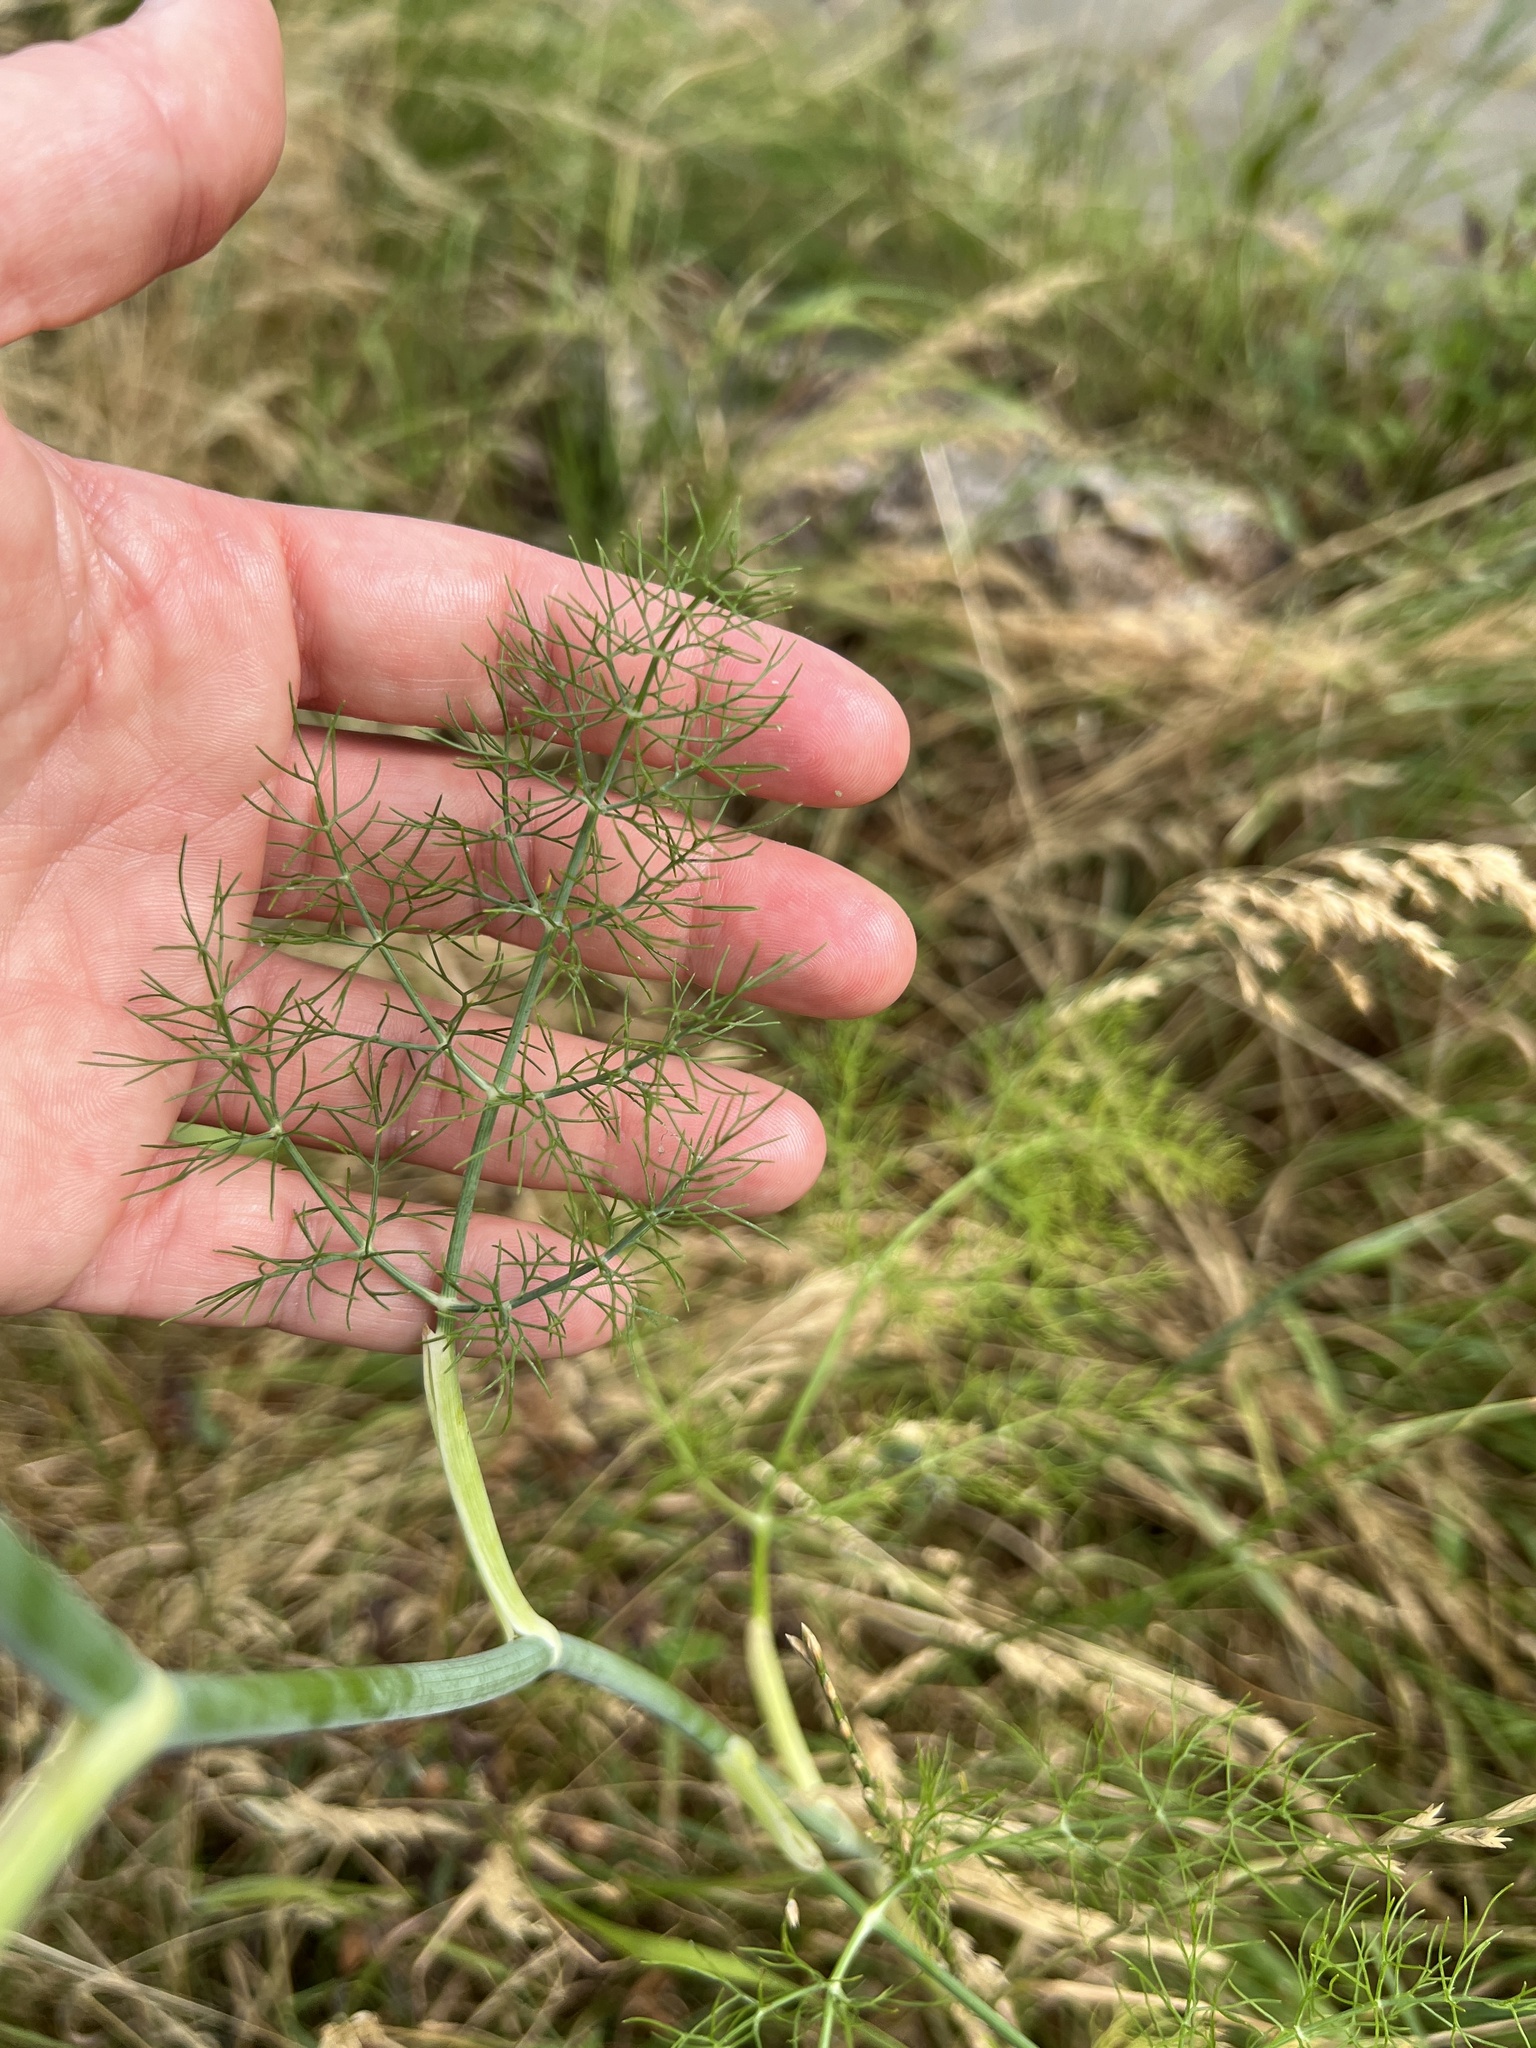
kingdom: Plantae
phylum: Tracheophyta
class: Magnoliopsida
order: Apiales
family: Apiaceae
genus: Foeniculum
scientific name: Foeniculum vulgare
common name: Fennel
